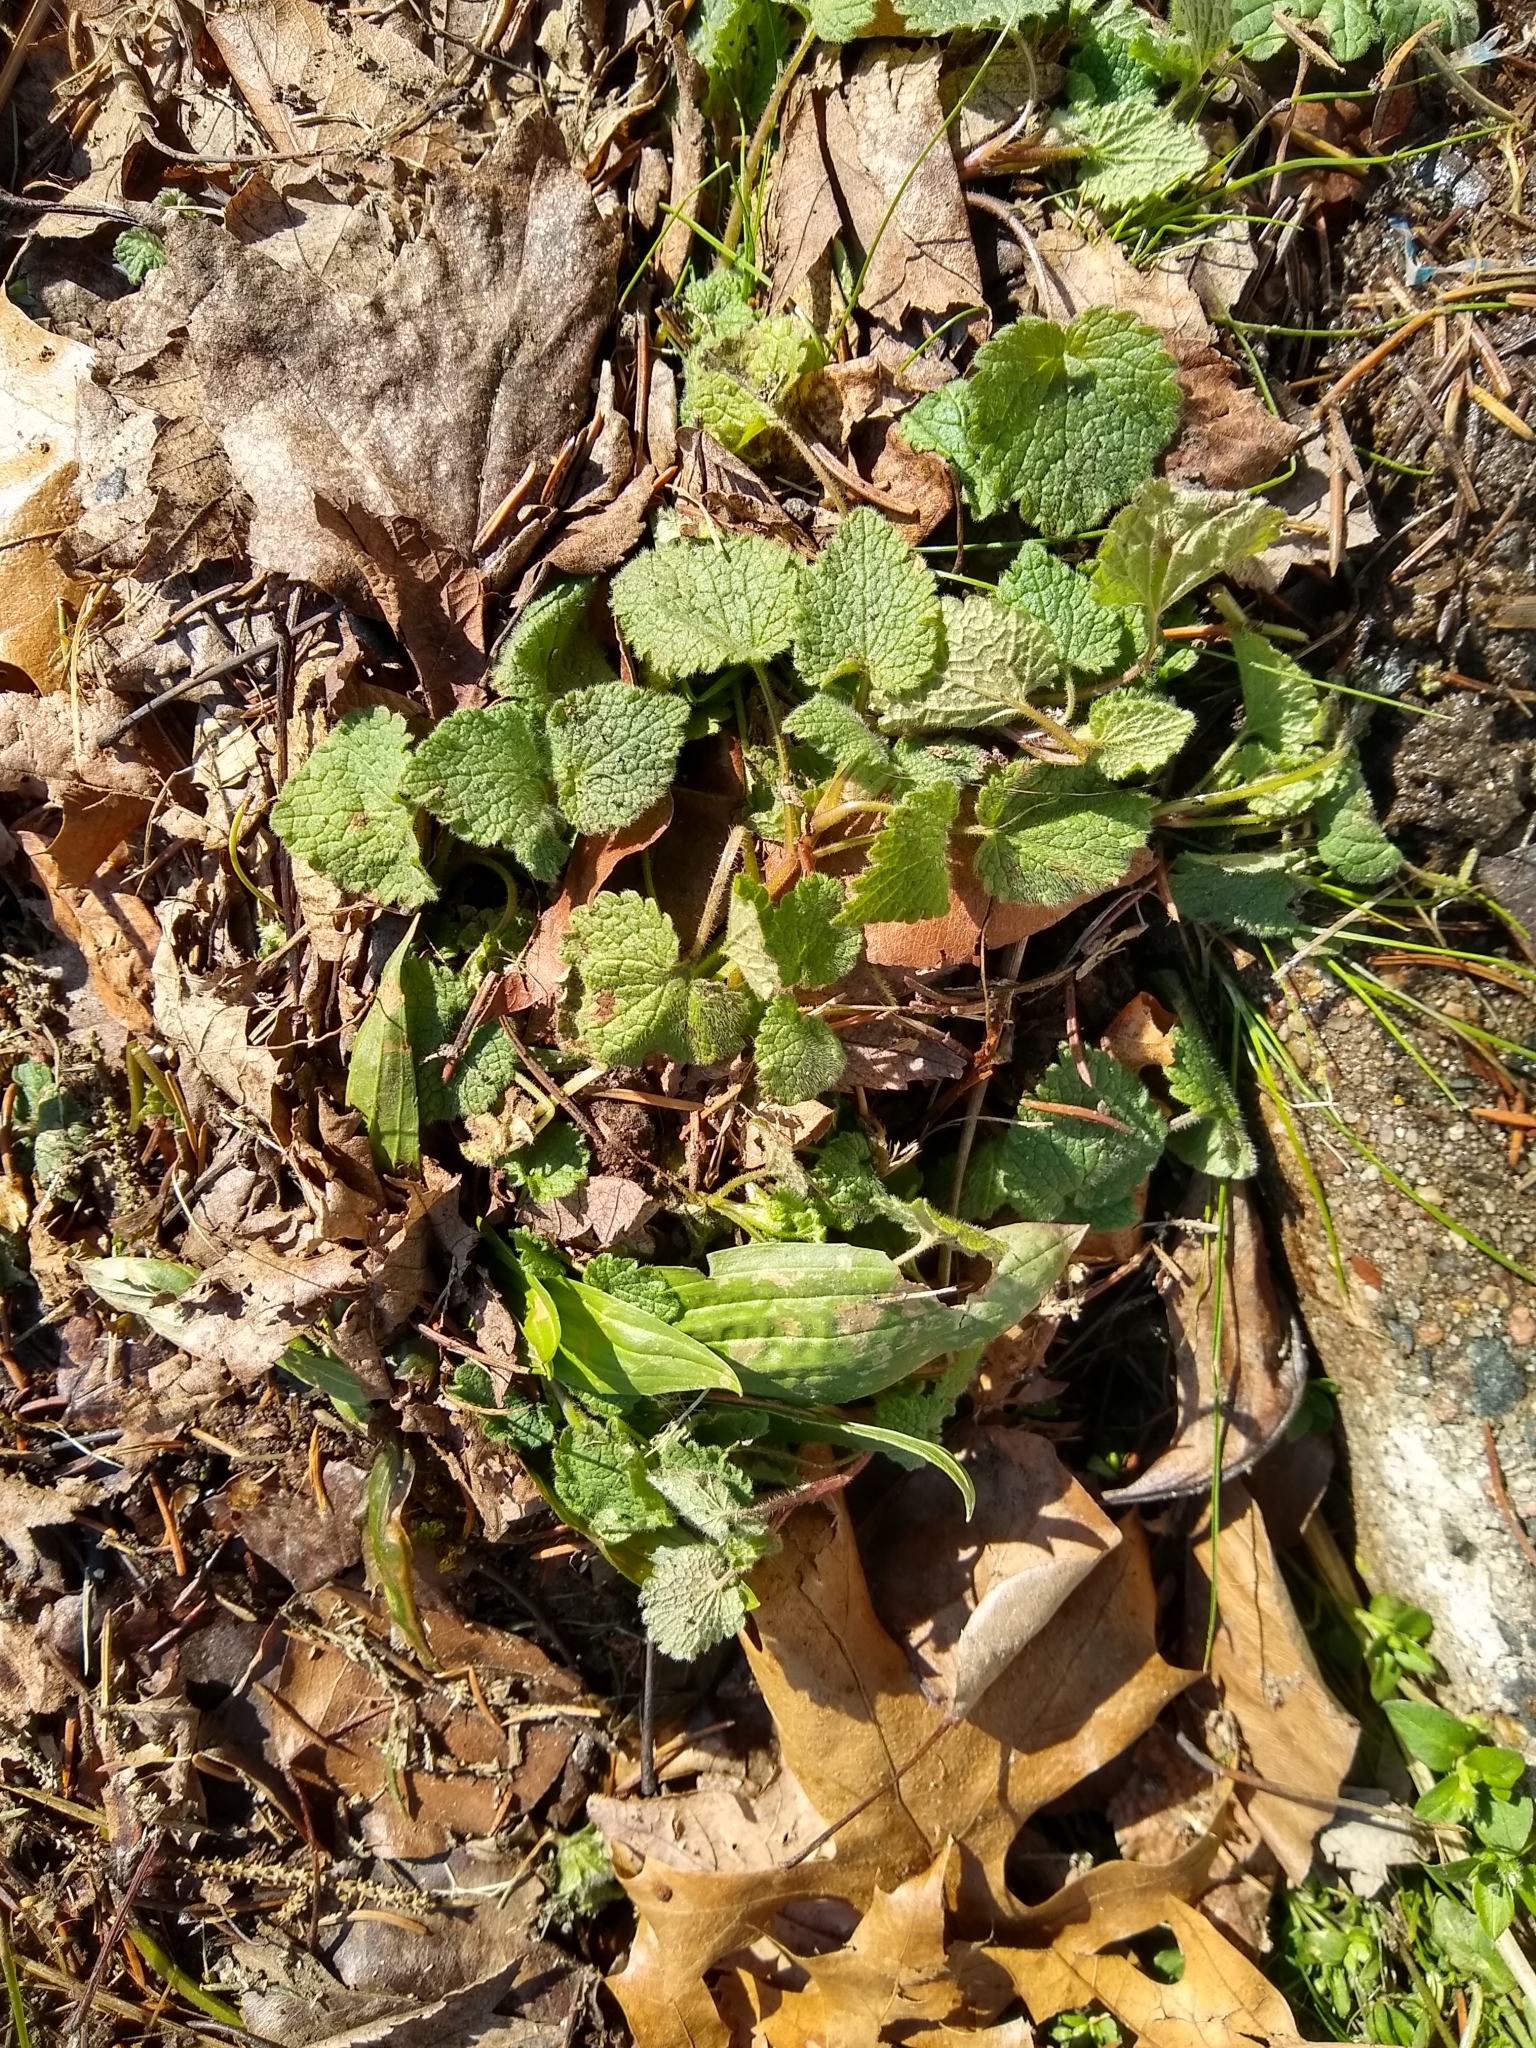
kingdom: Plantae
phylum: Tracheophyta
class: Magnoliopsida
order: Lamiales
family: Lamiaceae
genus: Lamium
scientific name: Lamium purpureum
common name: Red dead-nettle
